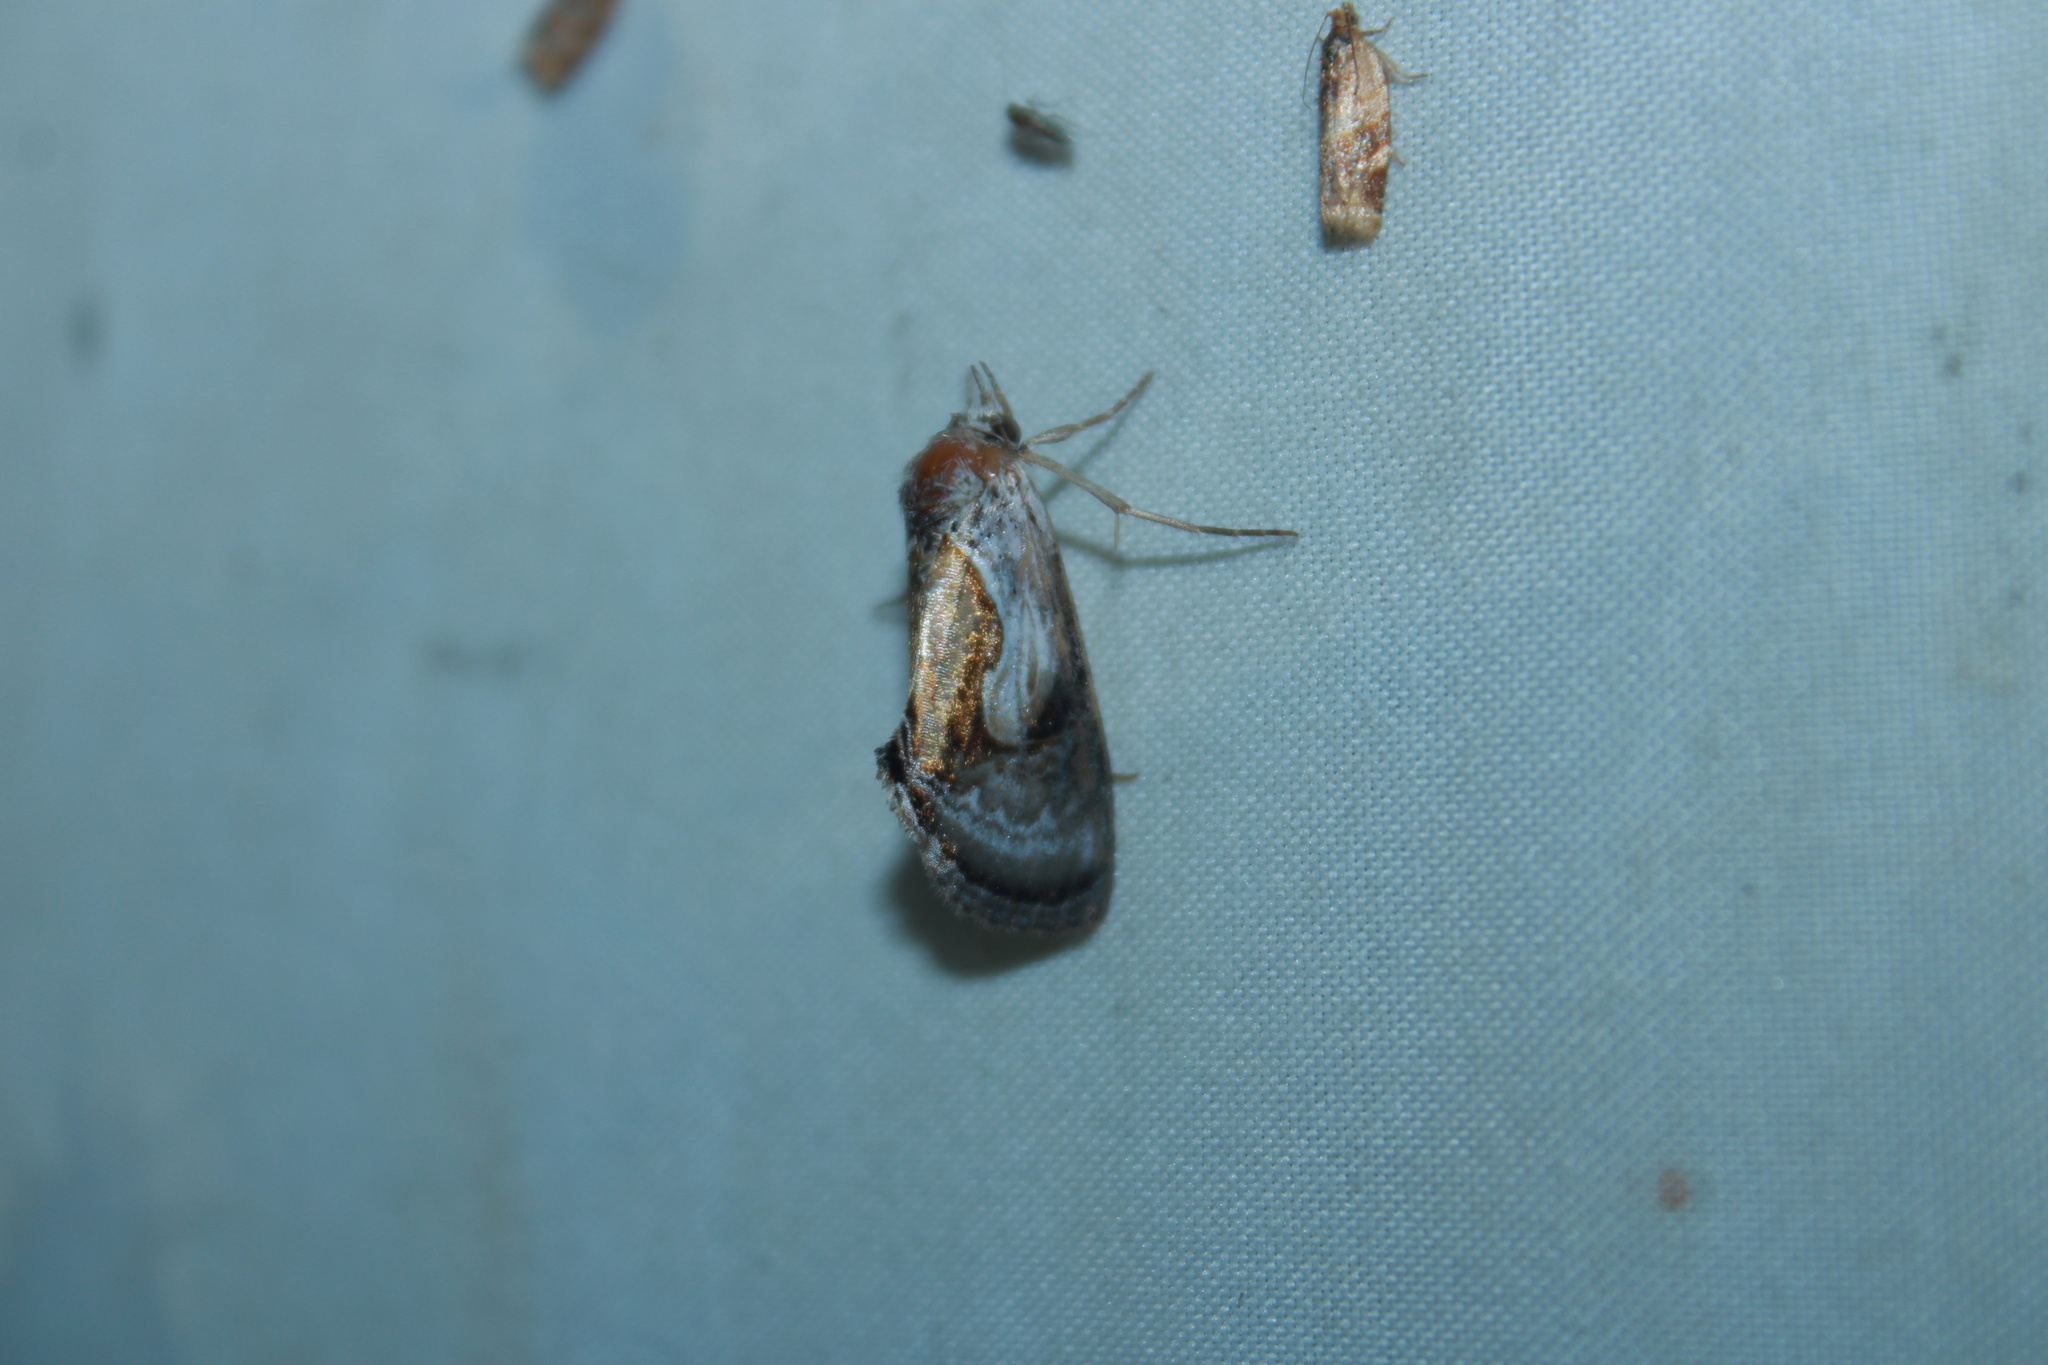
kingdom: Animalia
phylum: Arthropoda
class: Insecta
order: Lepidoptera
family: Noctuidae
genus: Chrysanympha
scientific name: Chrysanympha formosa
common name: Formosa looper moth
